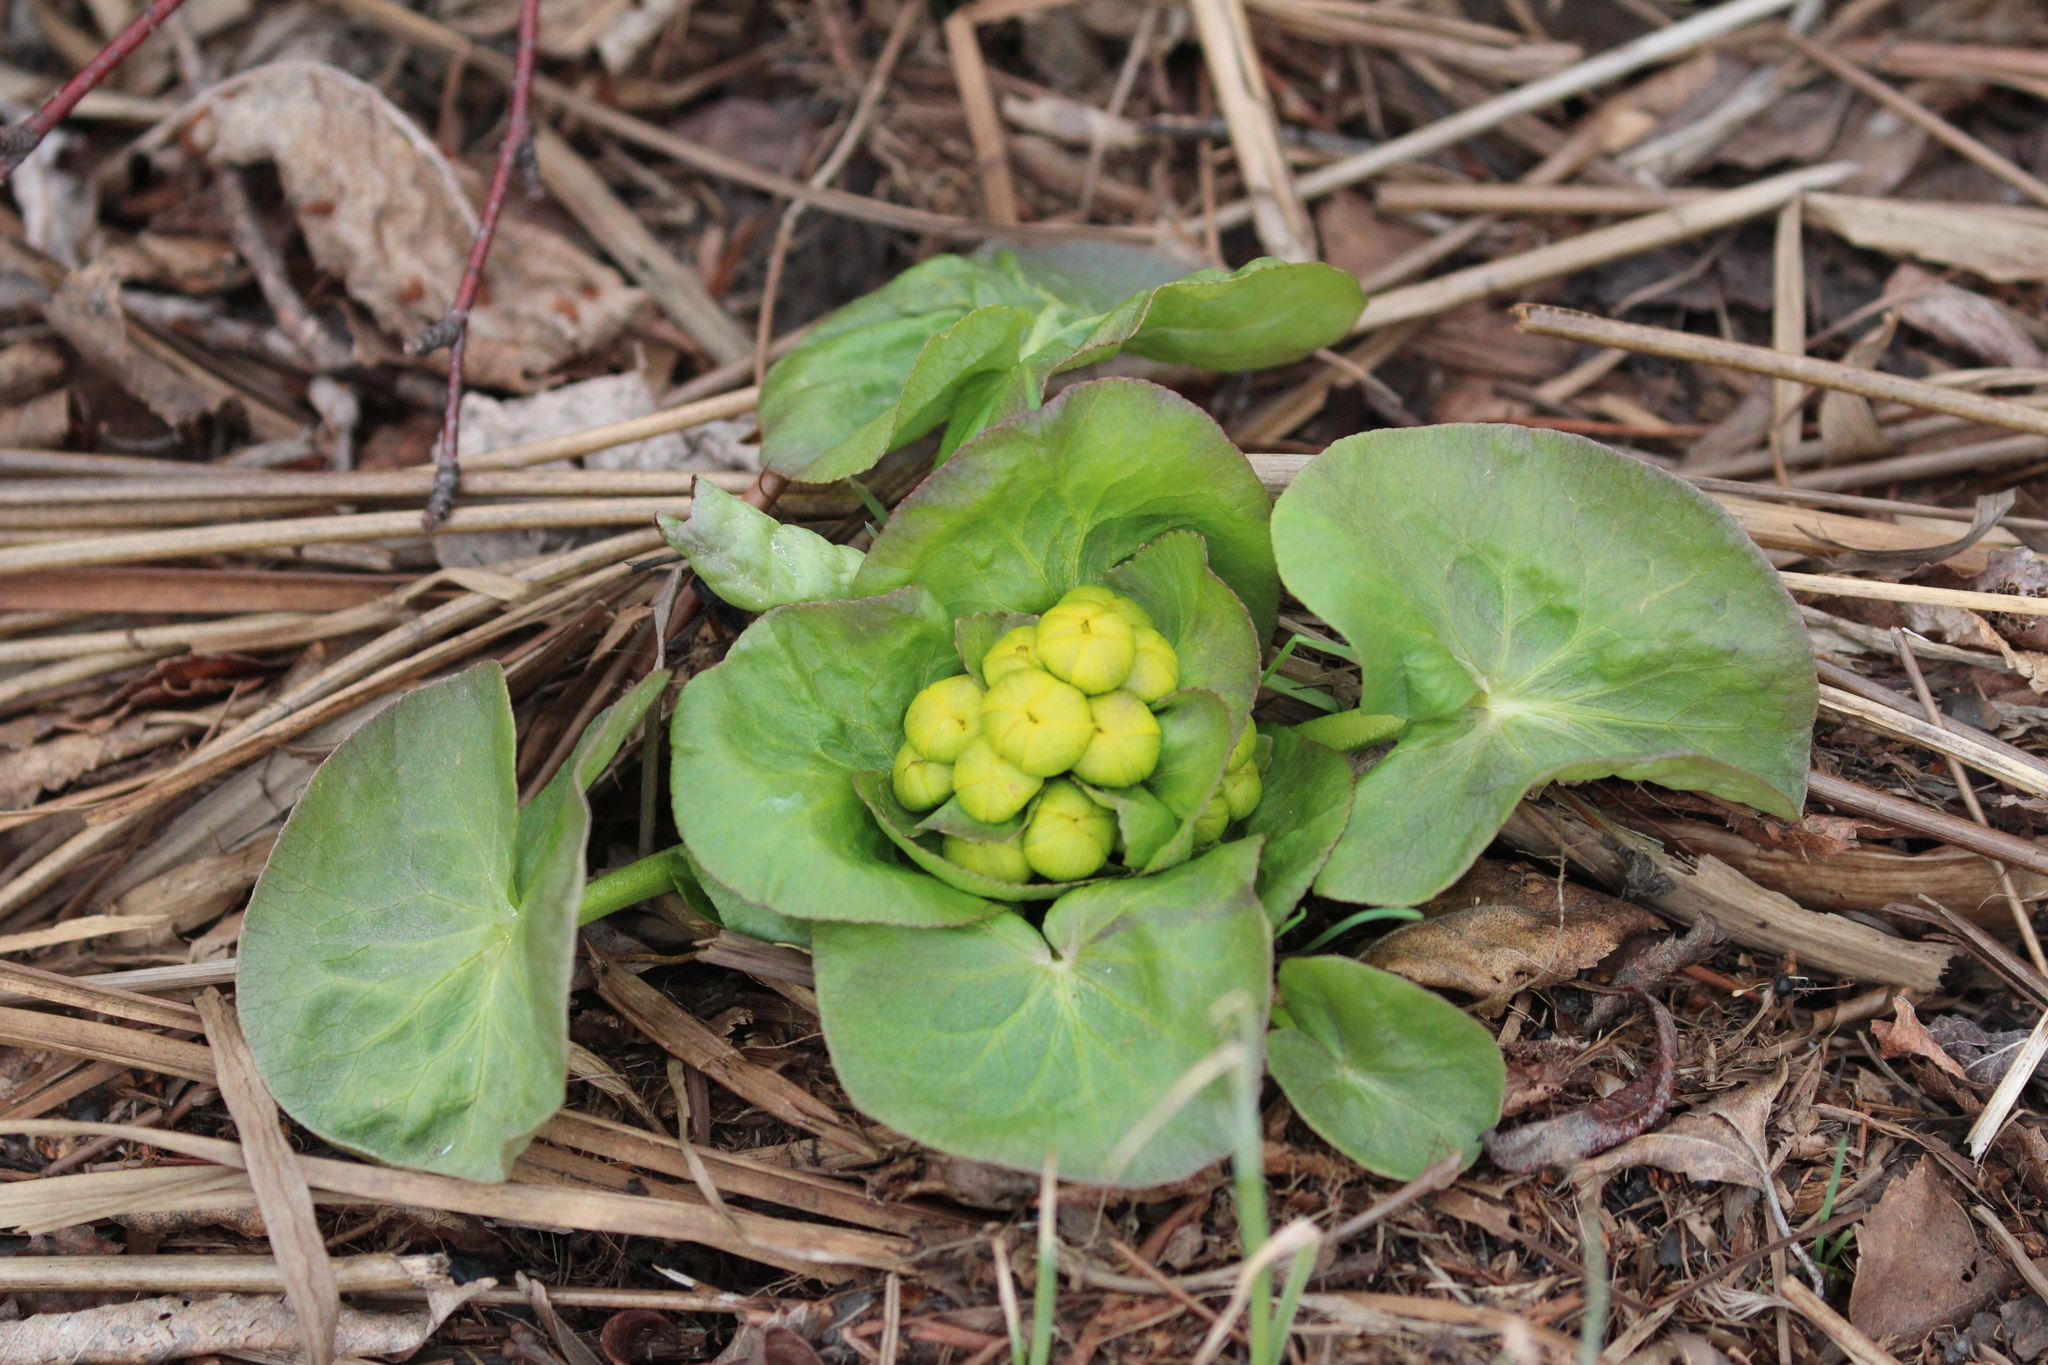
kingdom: Plantae
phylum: Tracheophyta
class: Magnoliopsida
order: Ranunculales
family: Ranunculaceae
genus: Caltha
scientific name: Caltha palustris
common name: Marsh marigold
